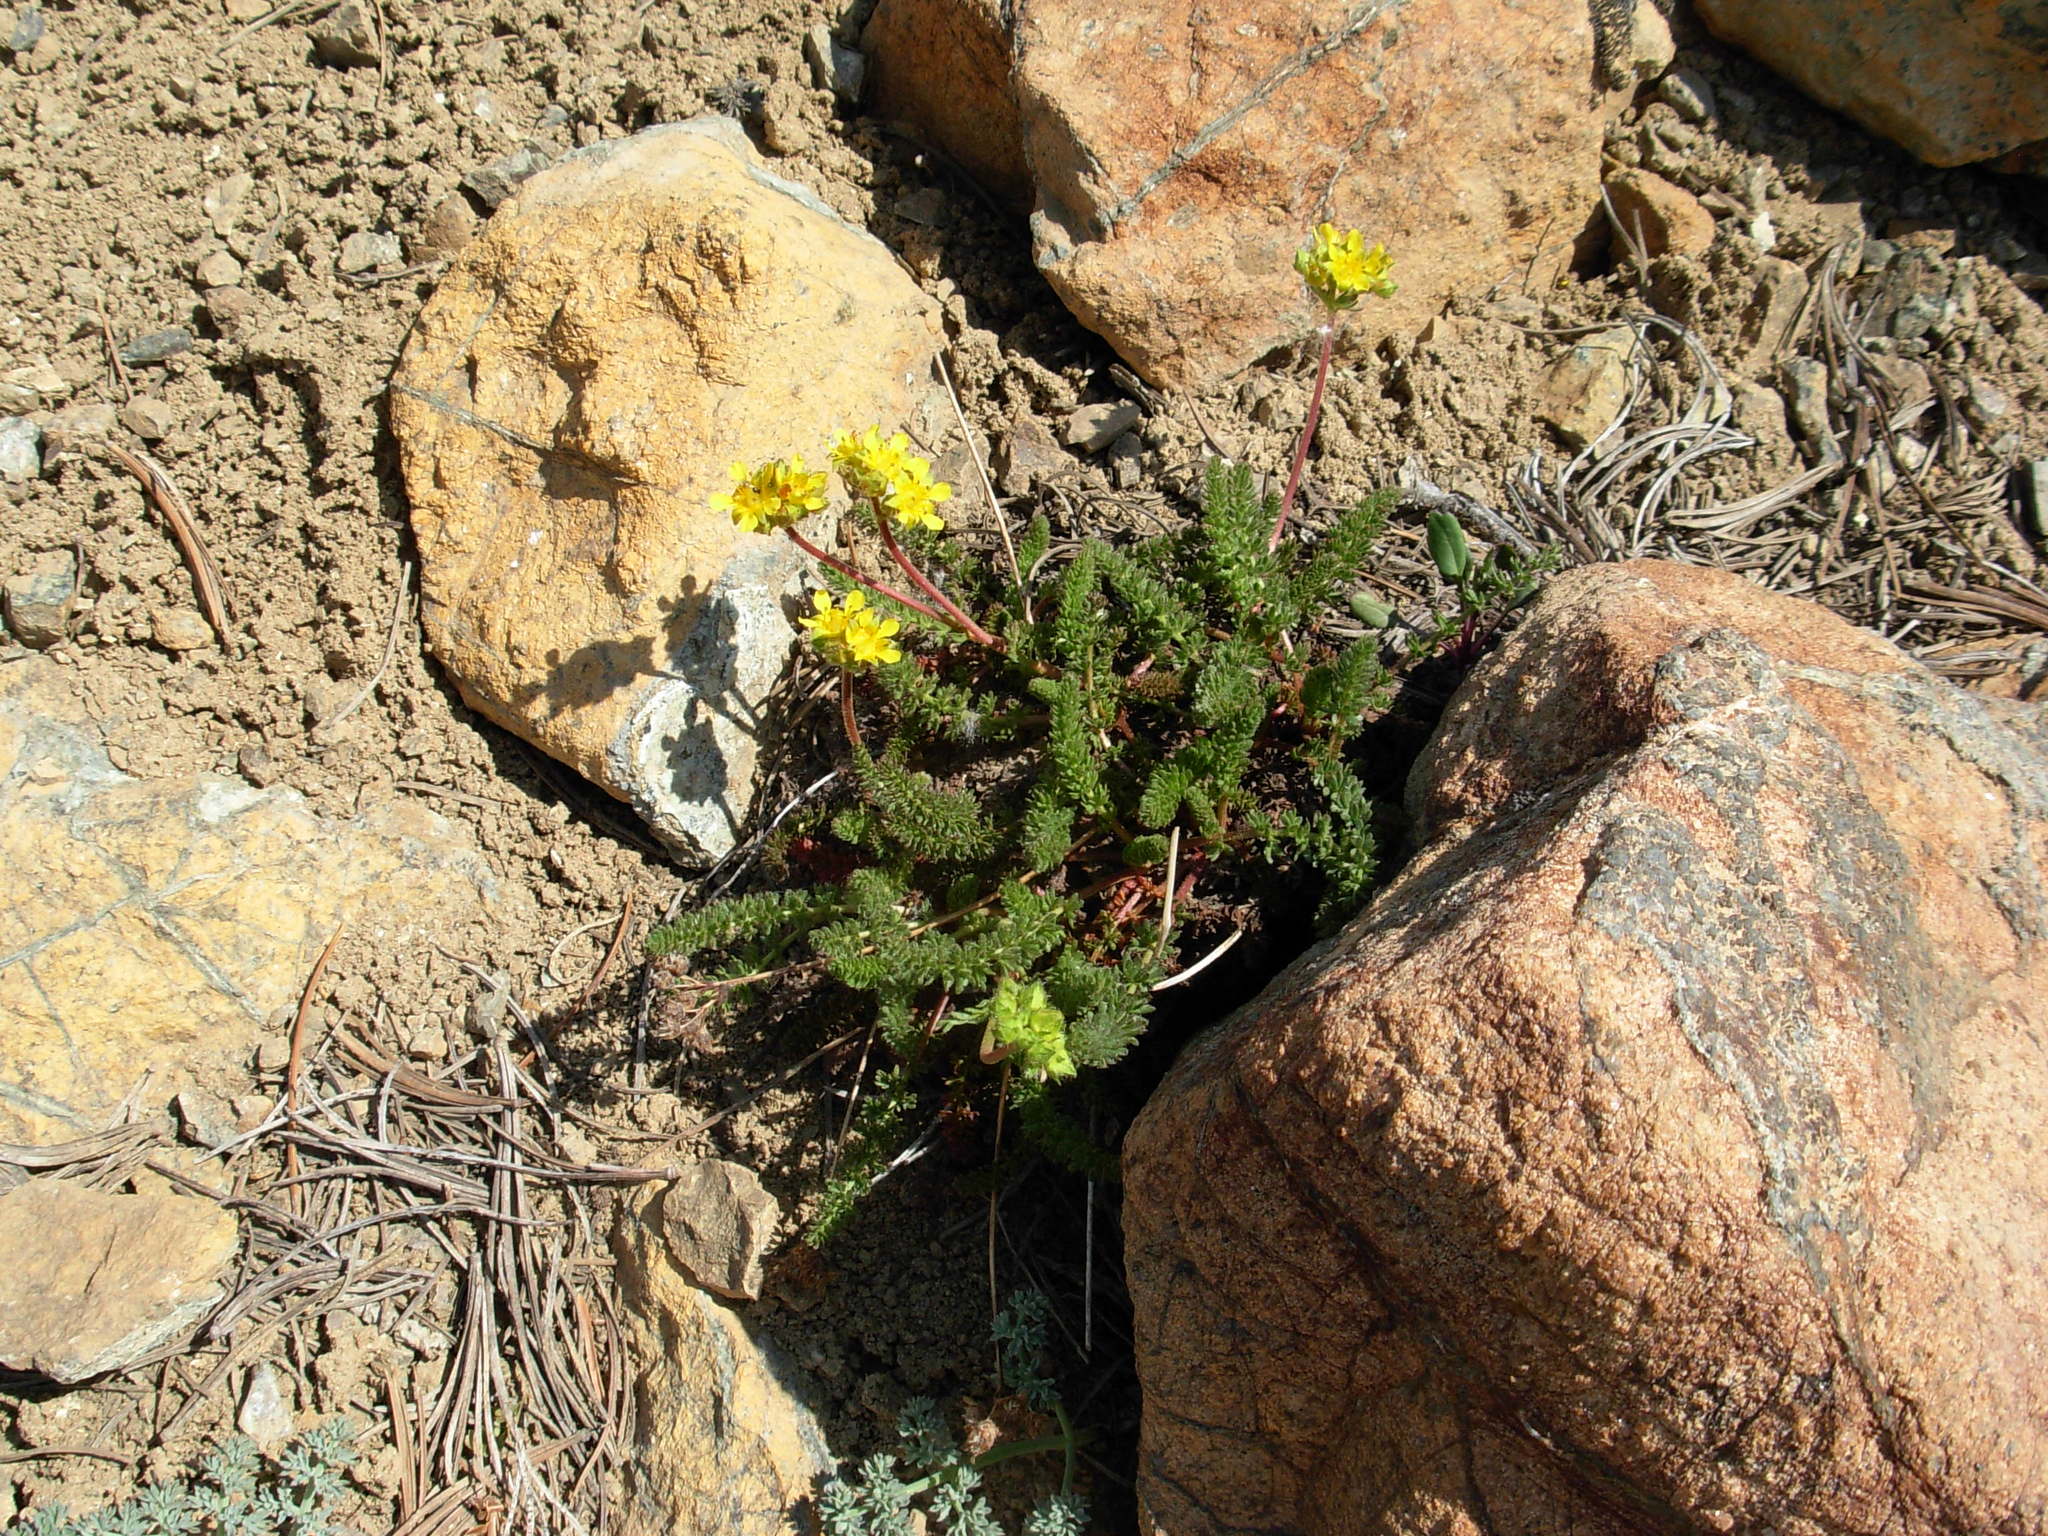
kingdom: Plantae
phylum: Tracheophyta
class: Magnoliopsida
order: Rosales
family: Rosaceae
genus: Potentilla
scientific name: Potentilla tweedyi
